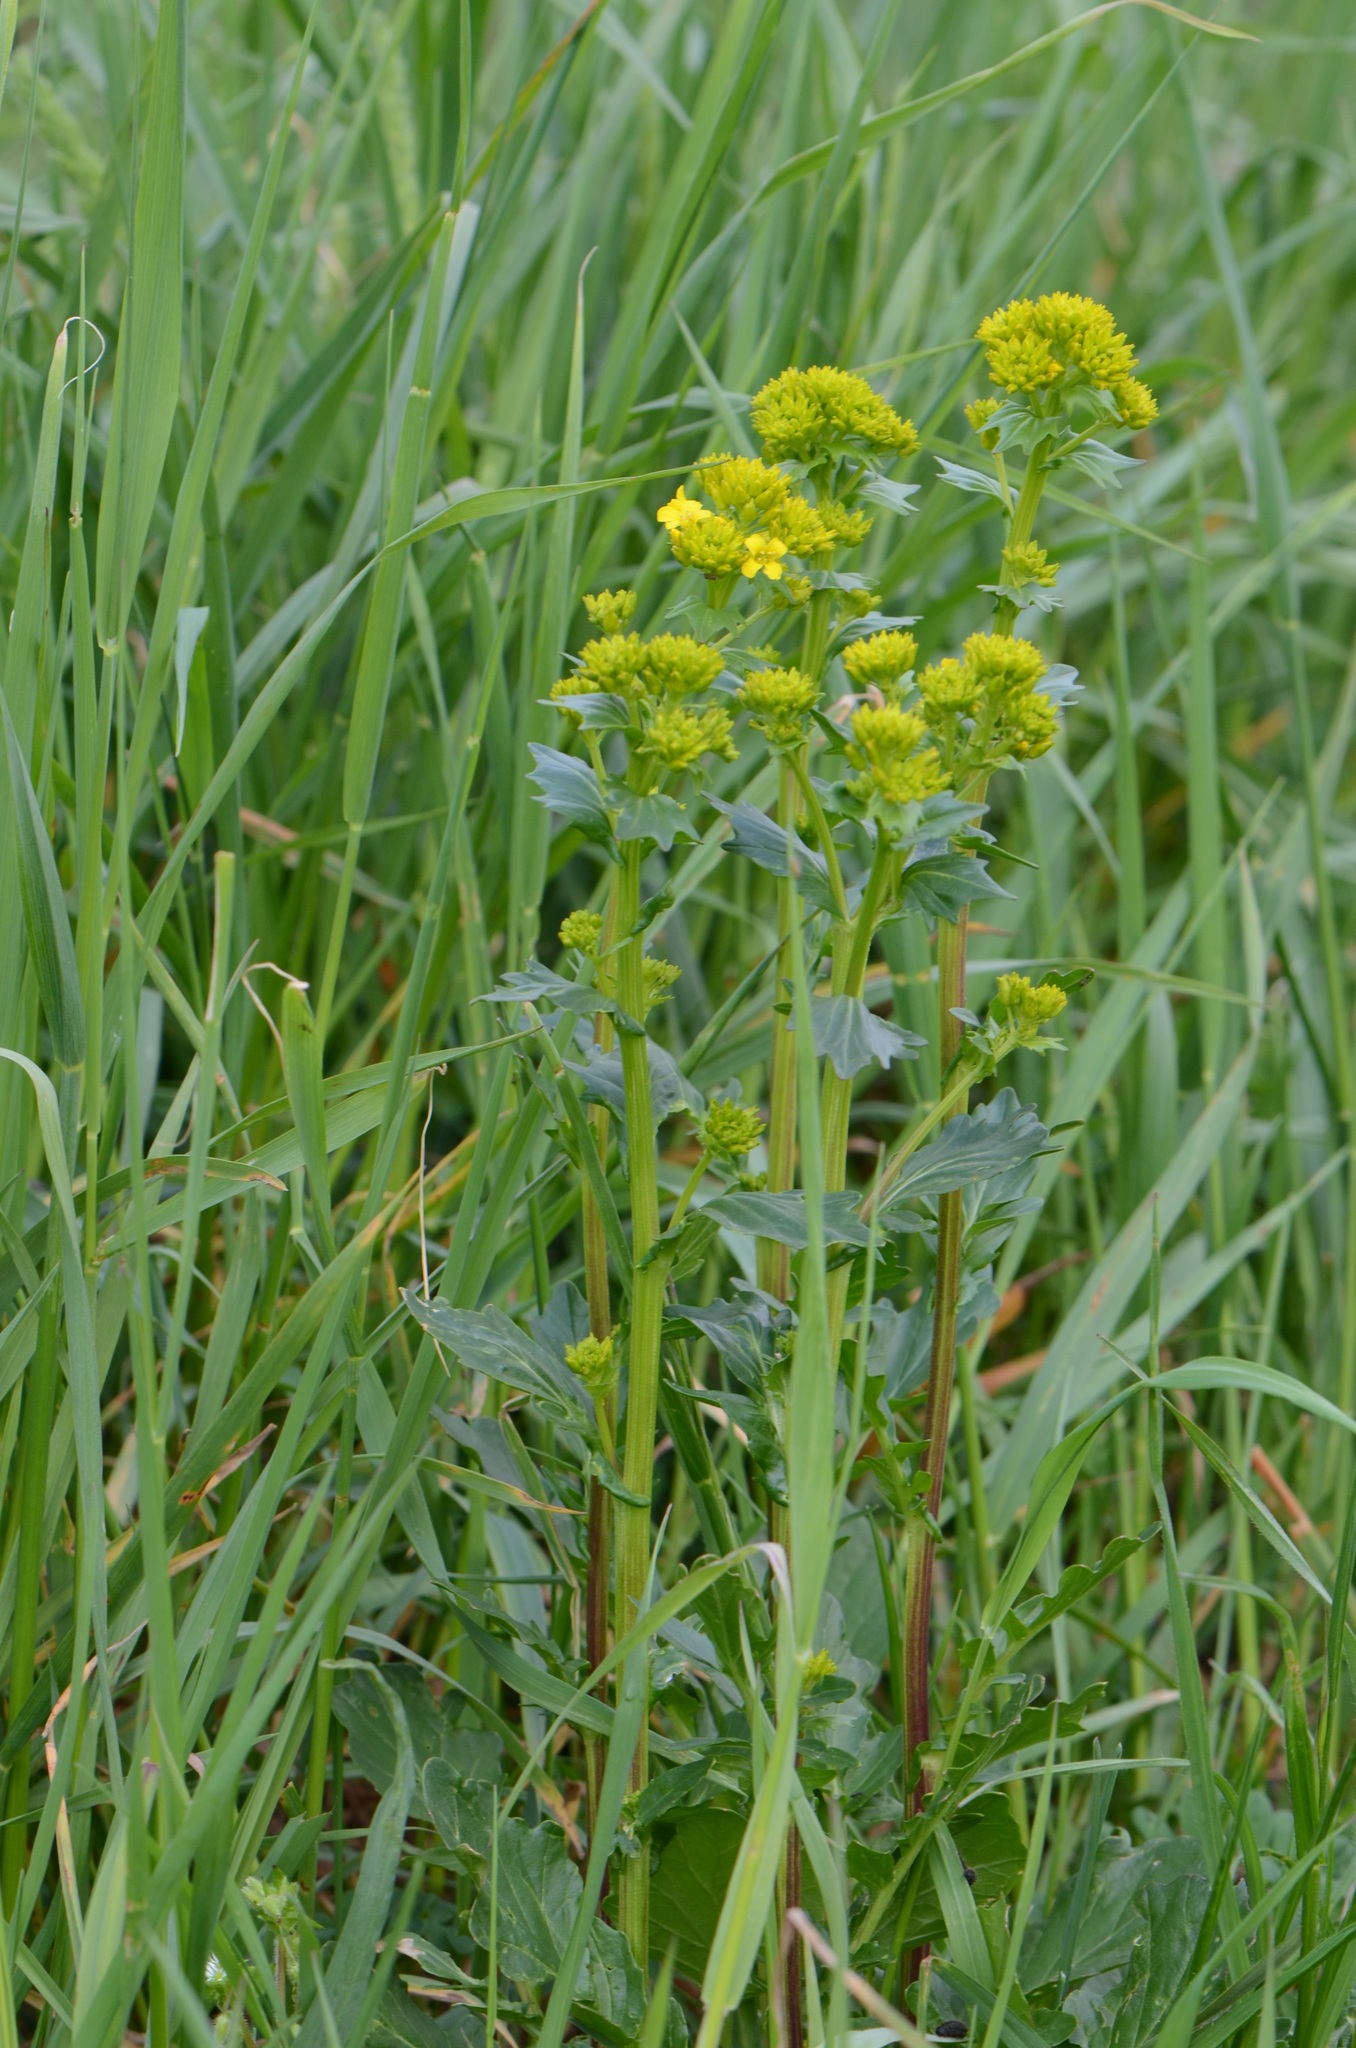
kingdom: Plantae
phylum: Tracheophyta
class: Magnoliopsida
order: Brassicales
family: Brassicaceae
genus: Barbarea
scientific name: Barbarea vulgaris
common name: Cressy-greens
